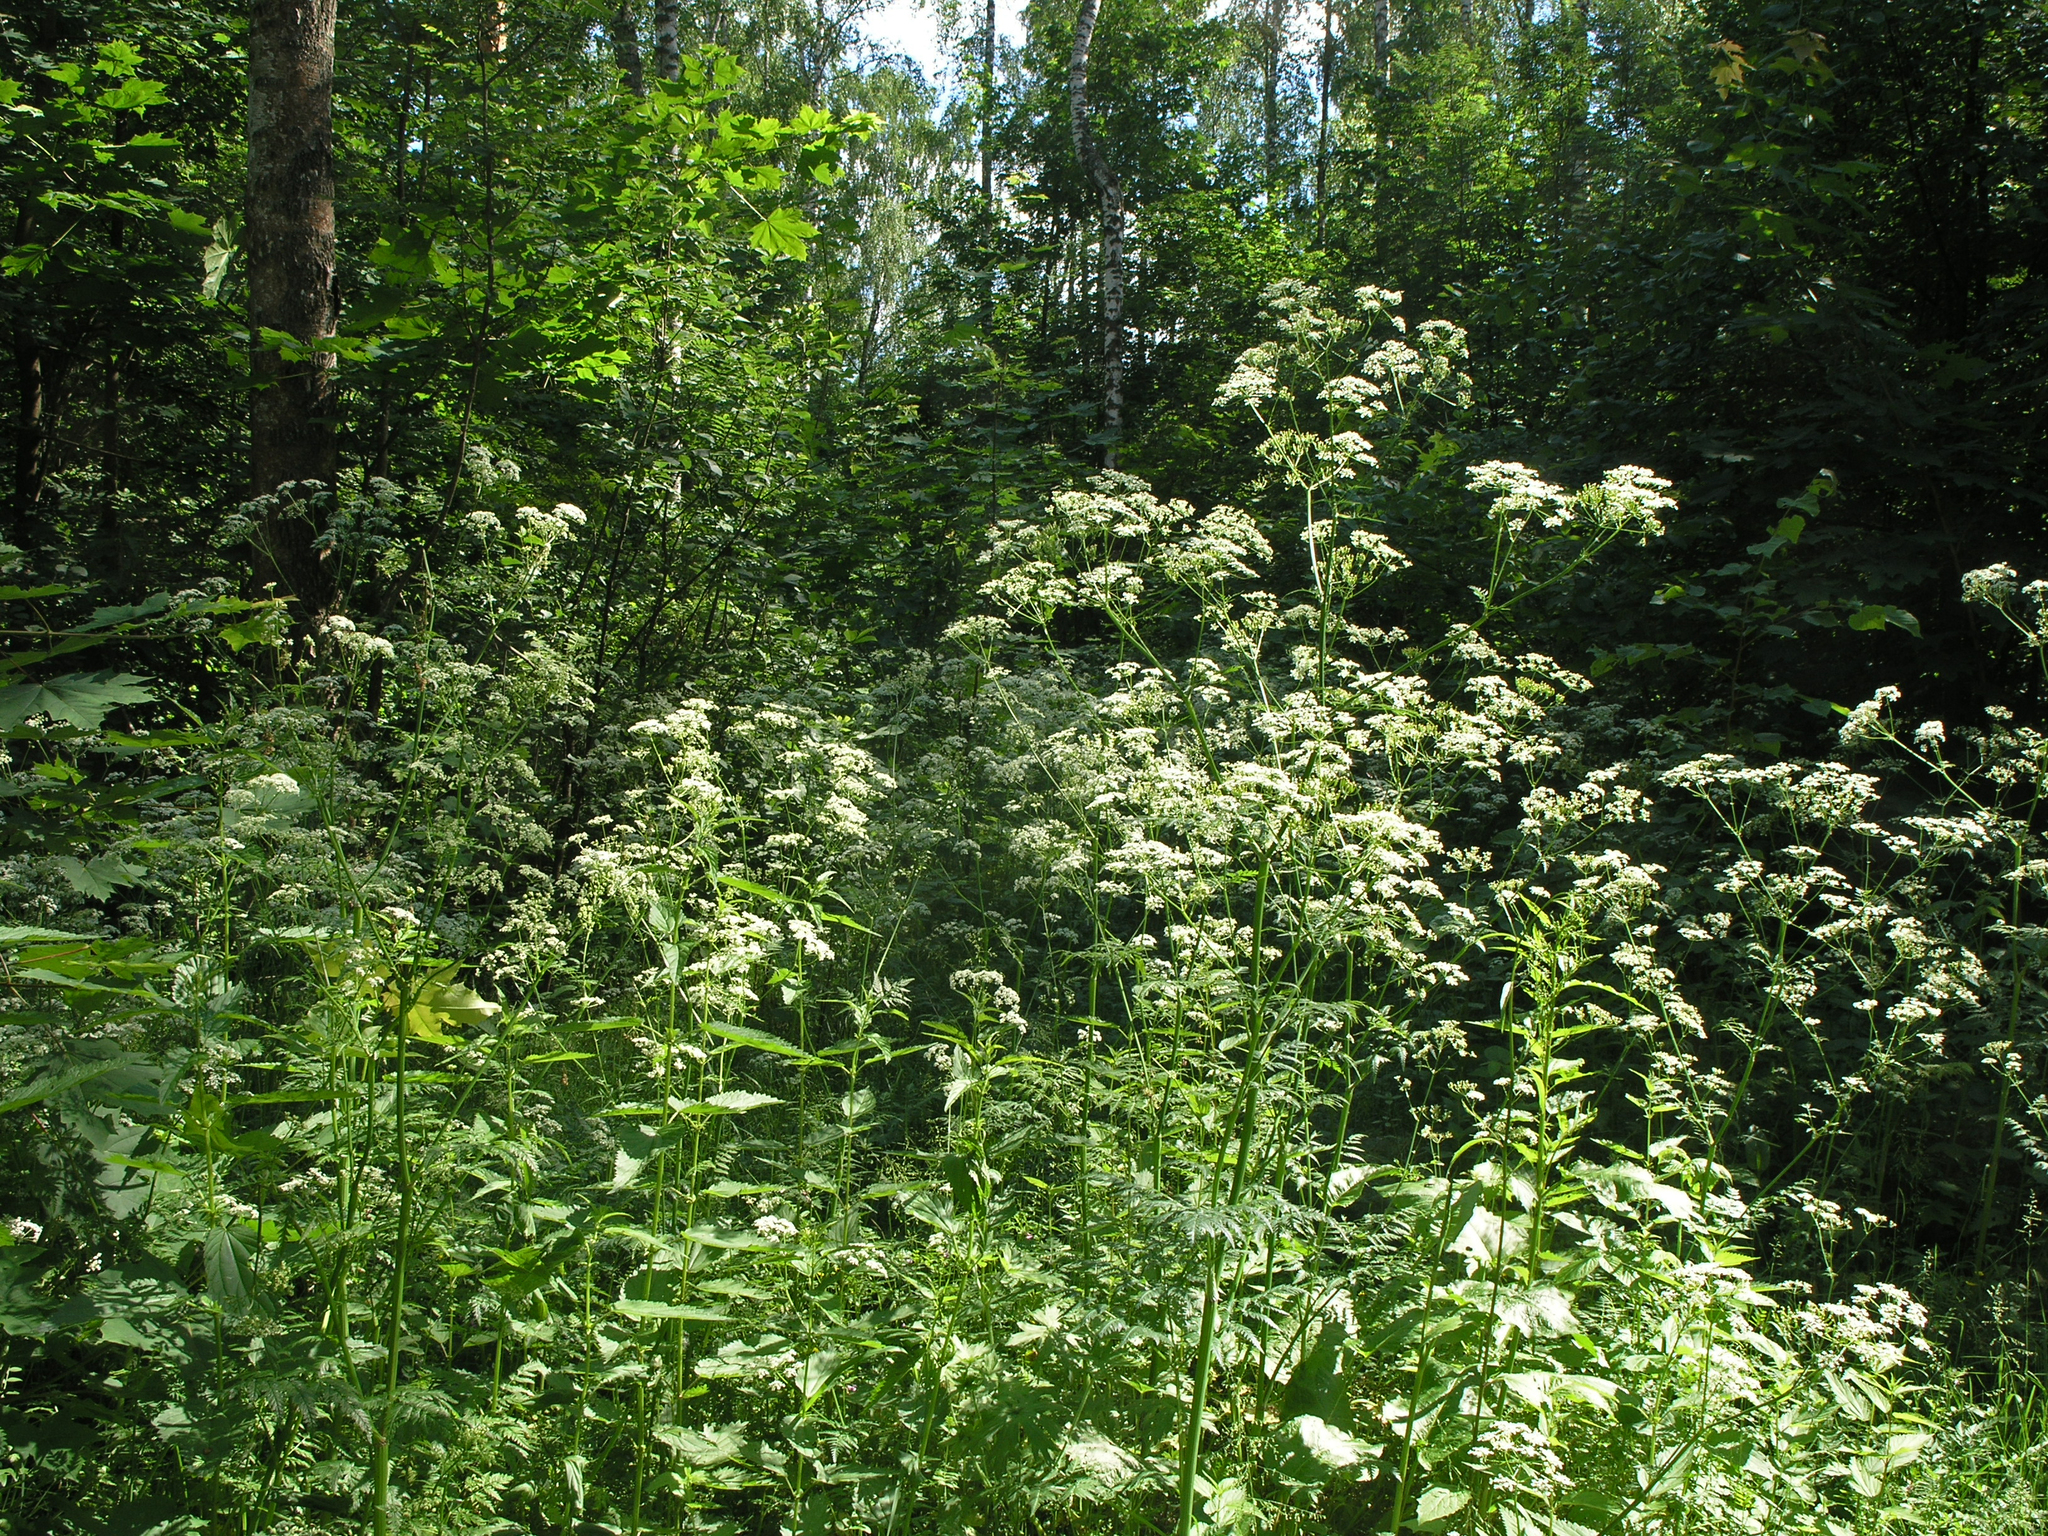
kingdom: Plantae
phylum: Tracheophyta
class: Magnoliopsida
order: Apiales
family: Apiaceae
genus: Anthriscus
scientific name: Anthriscus sylvestris
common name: Cow parsley
